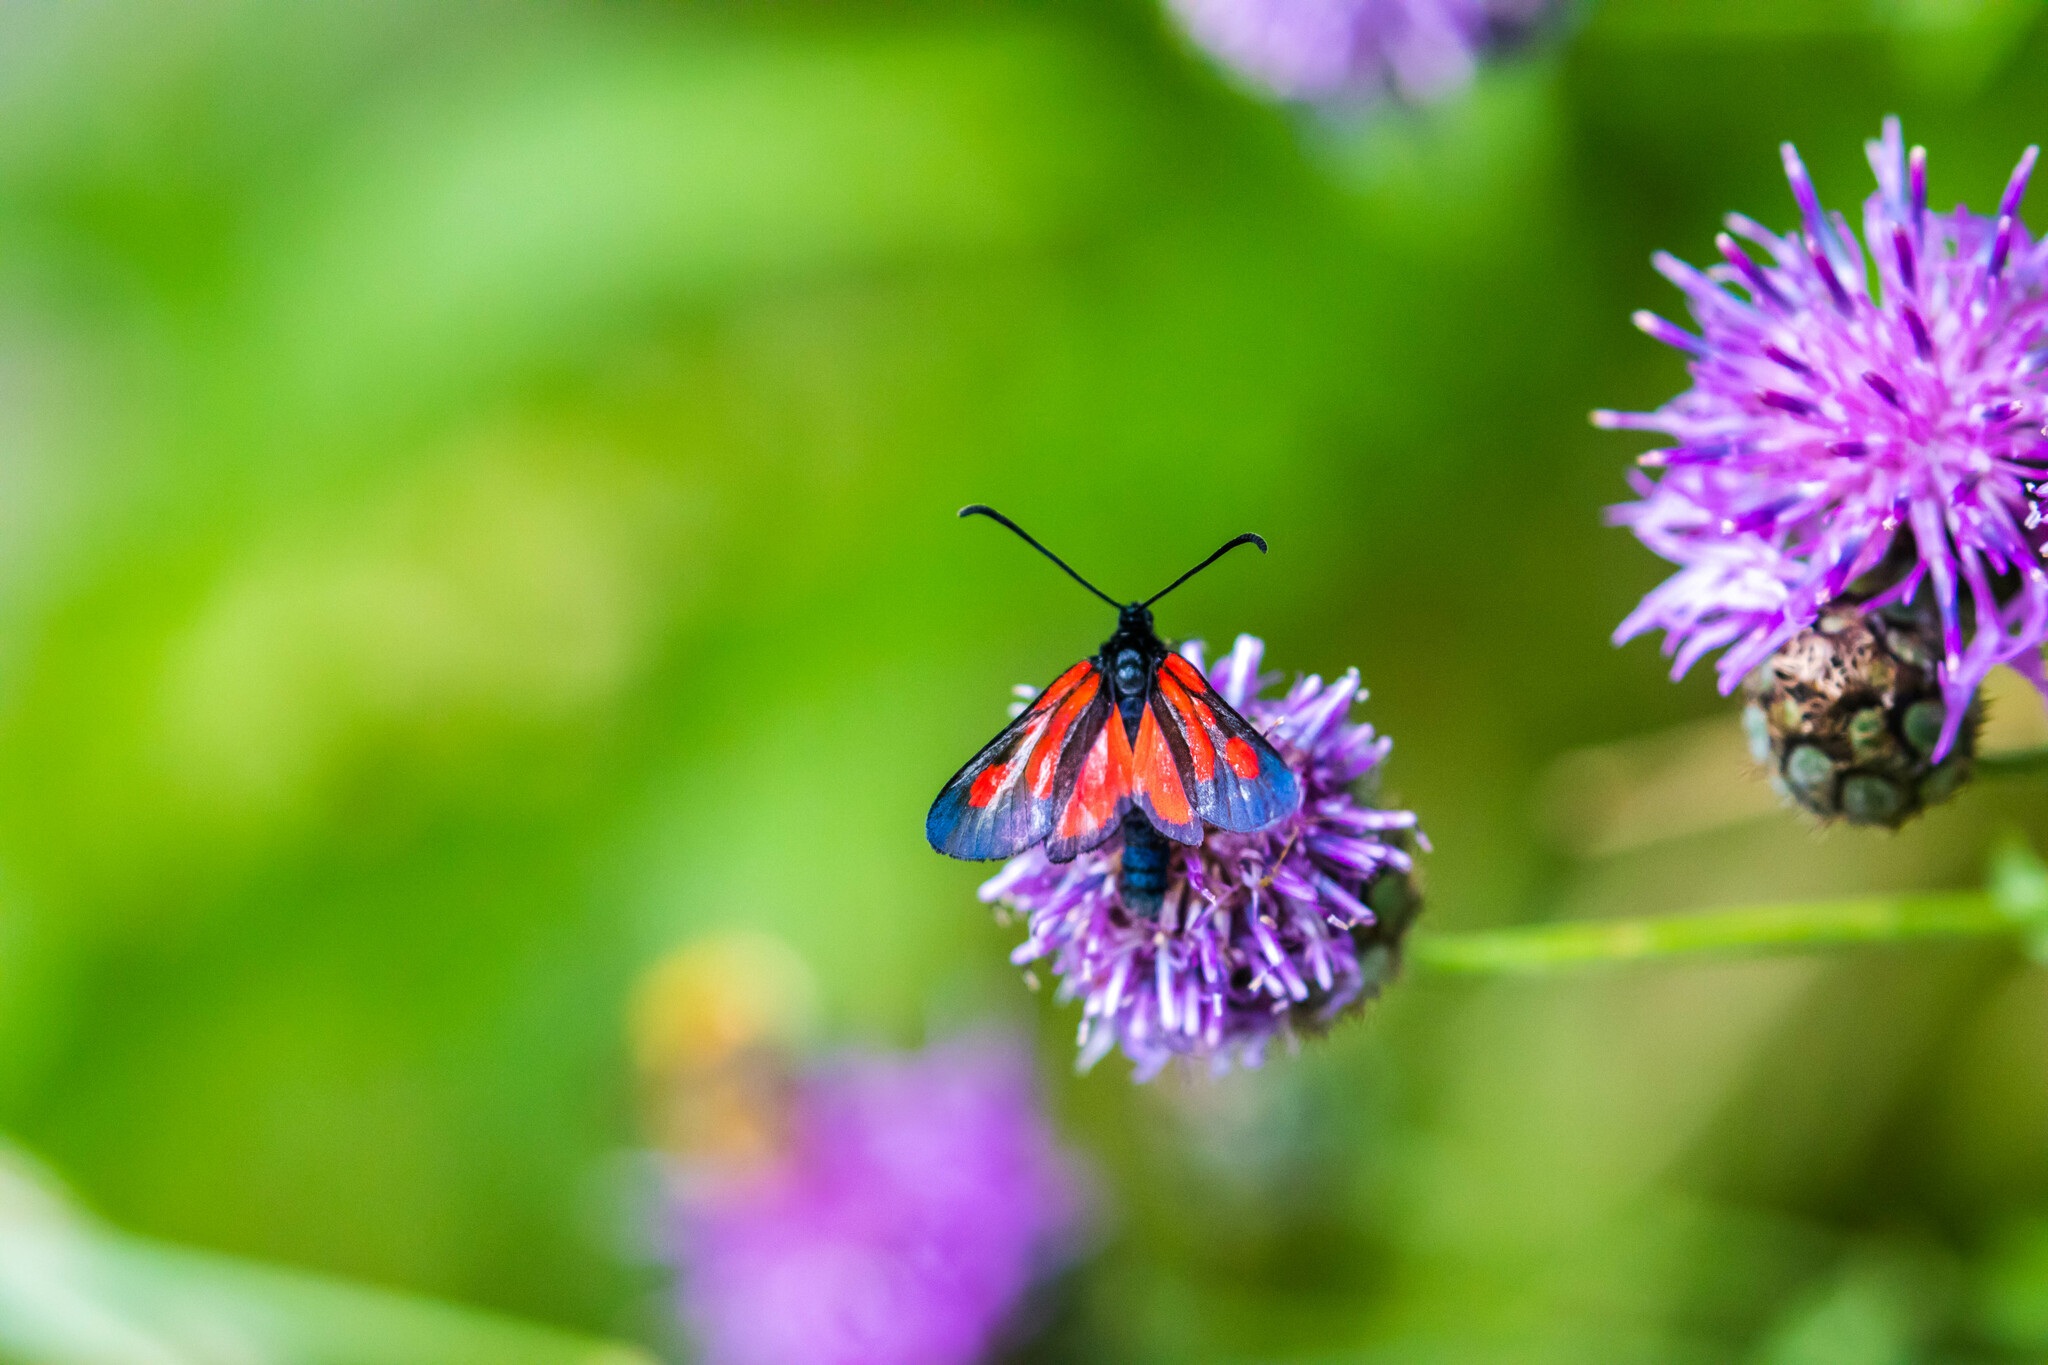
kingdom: Animalia
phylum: Arthropoda
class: Insecta
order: Lepidoptera
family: Zygaenidae
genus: Zygaena
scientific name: Zygaena romeo
